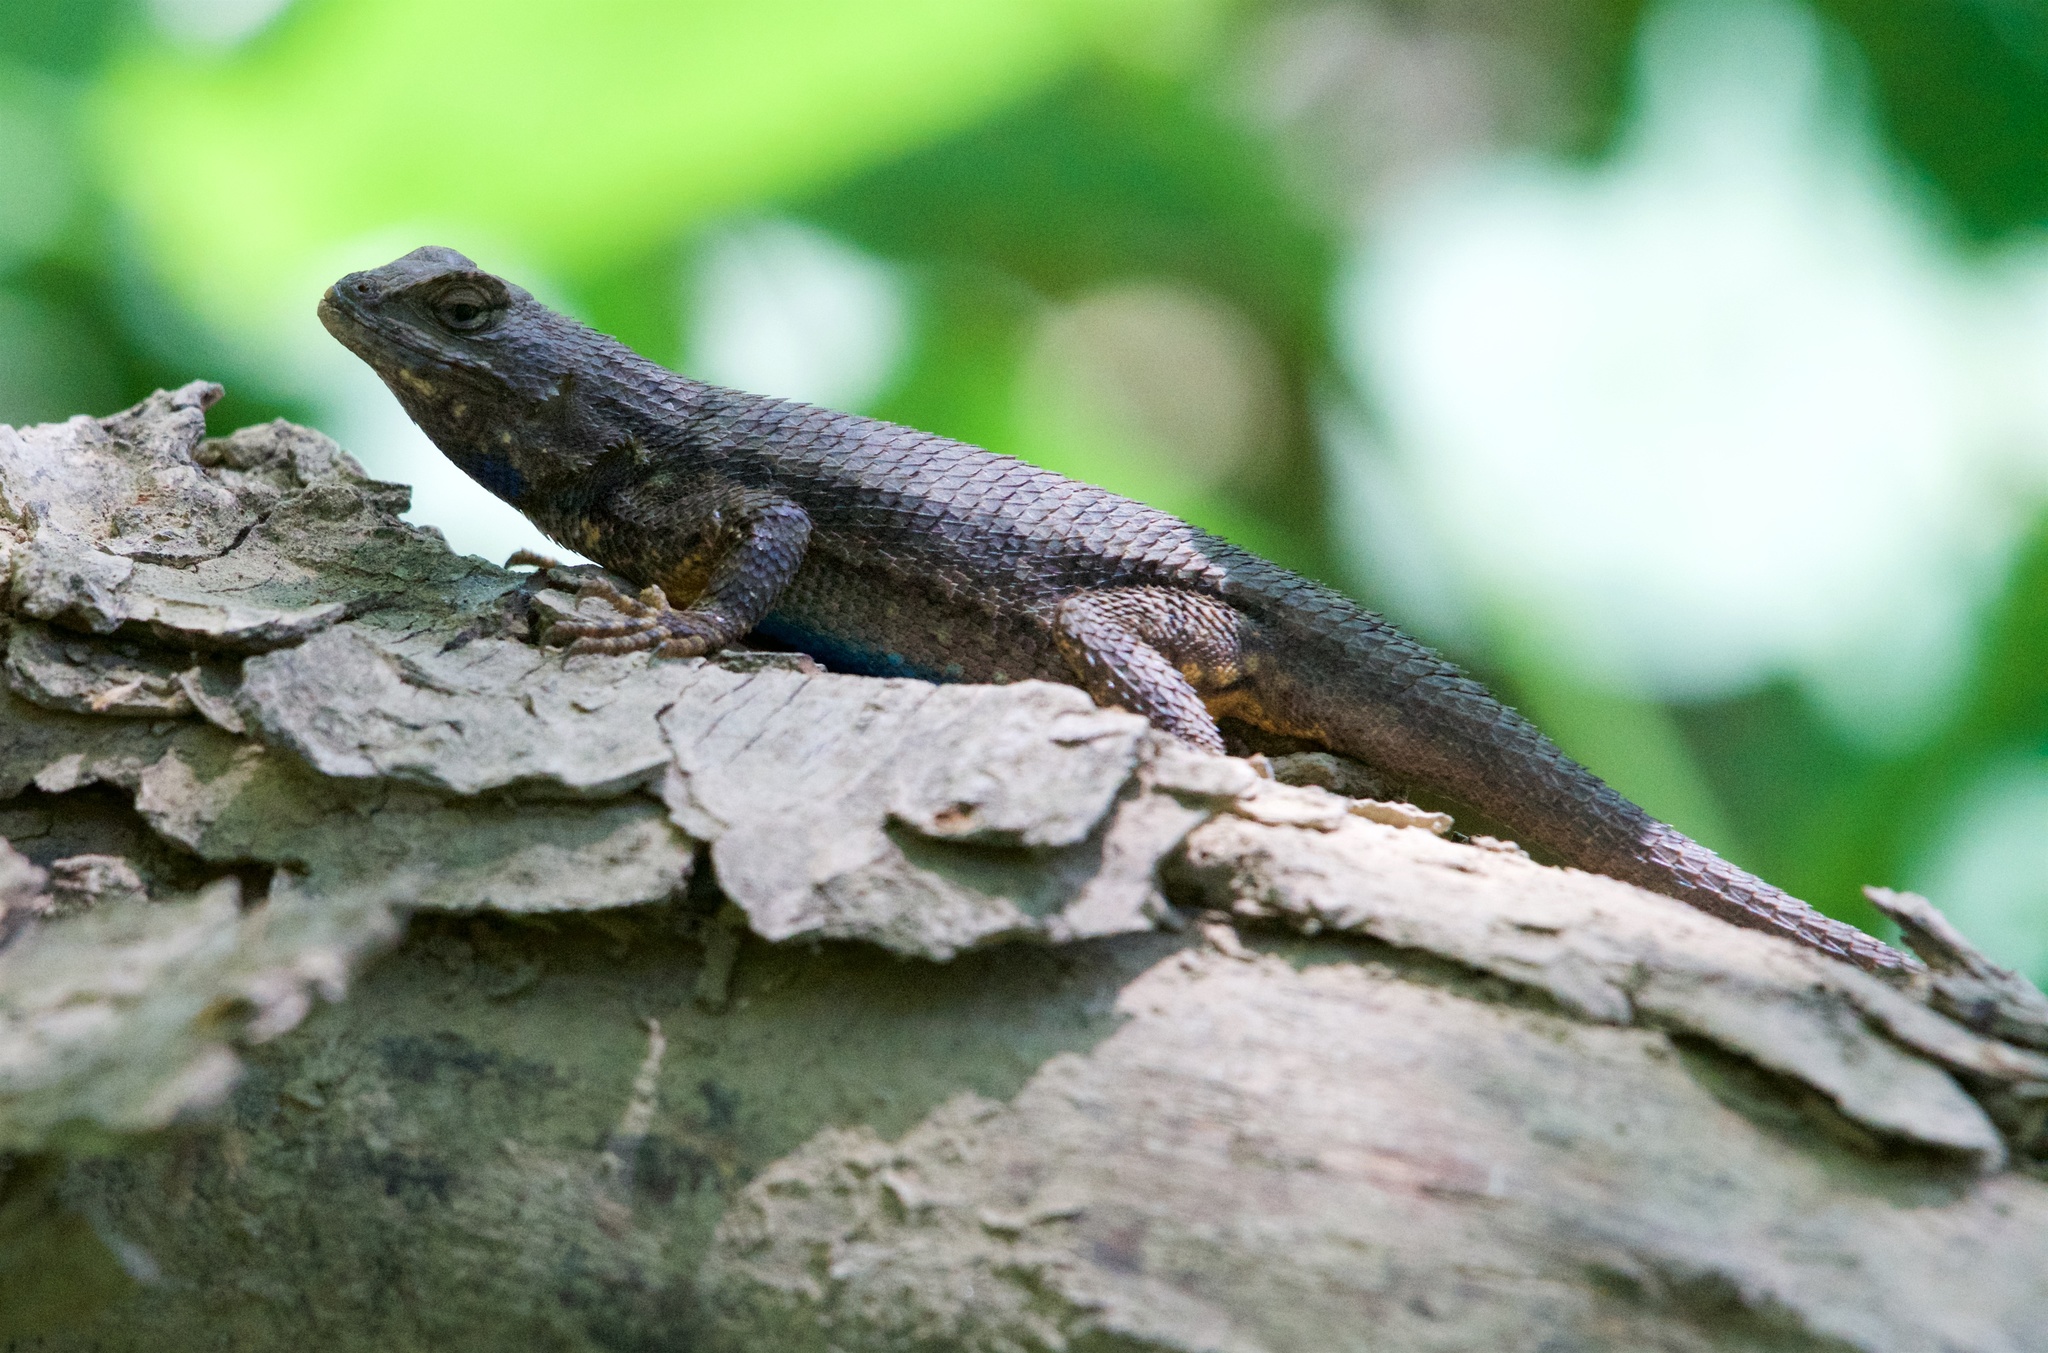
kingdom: Animalia
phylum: Chordata
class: Squamata
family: Phrynosomatidae
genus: Sceloporus
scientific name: Sceloporus occidentalis
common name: Western fence lizard
